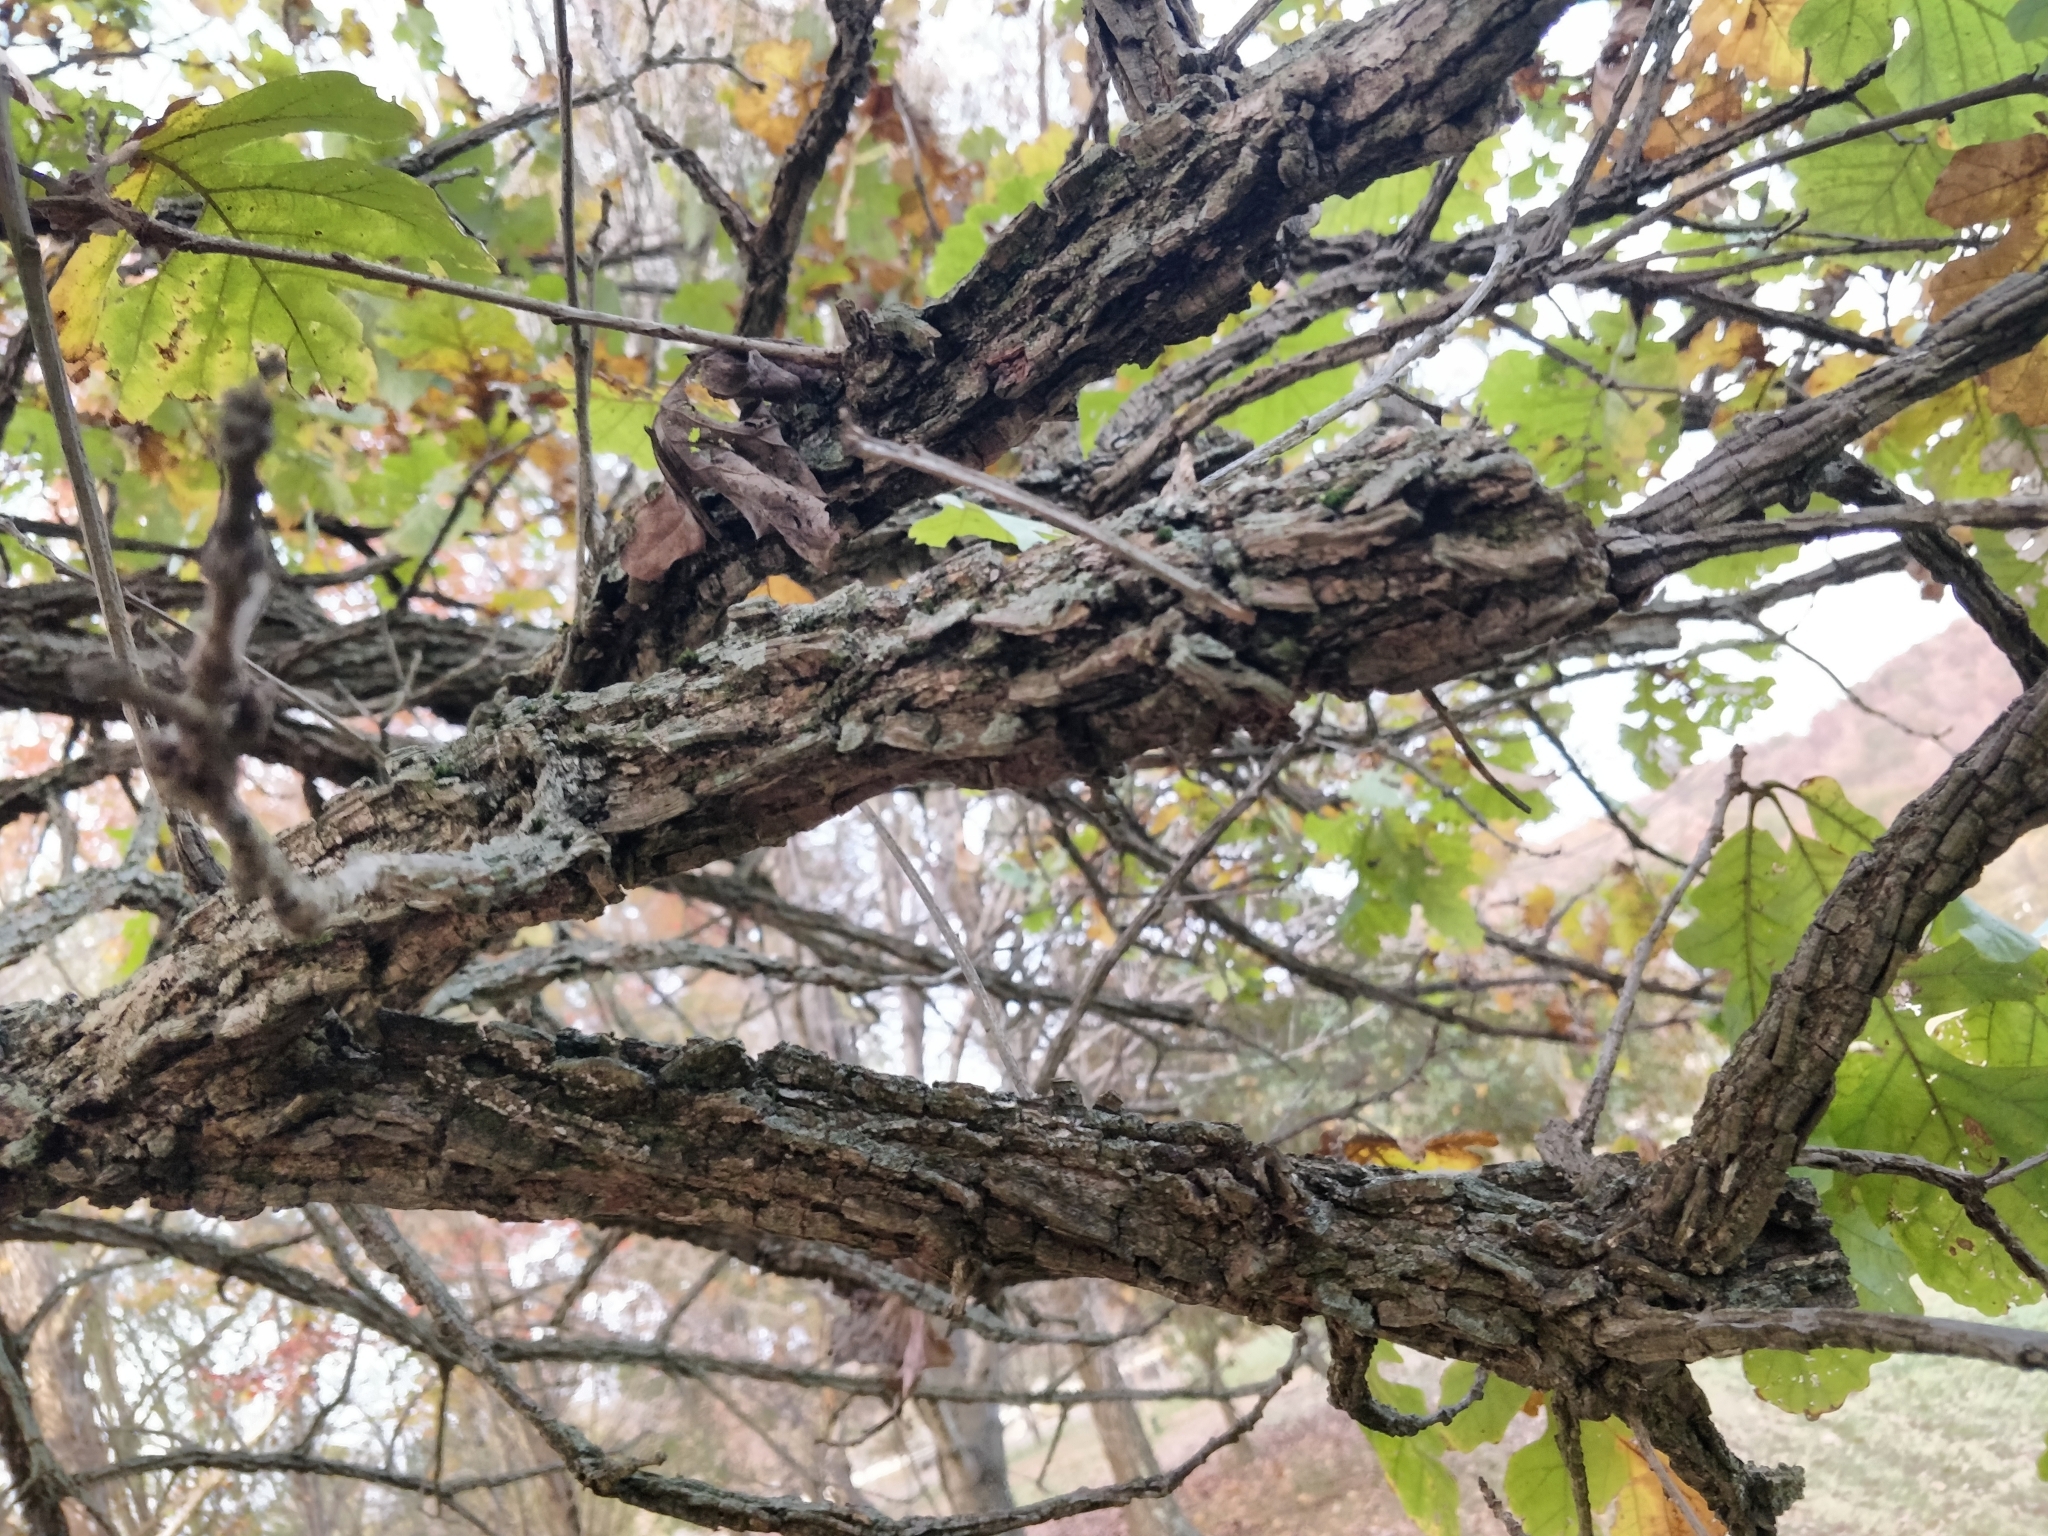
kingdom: Plantae
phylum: Tracheophyta
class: Magnoliopsida
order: Fagales
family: Fagaceae
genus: Quercus
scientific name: Quercus macrocarpa
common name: Bur oak
